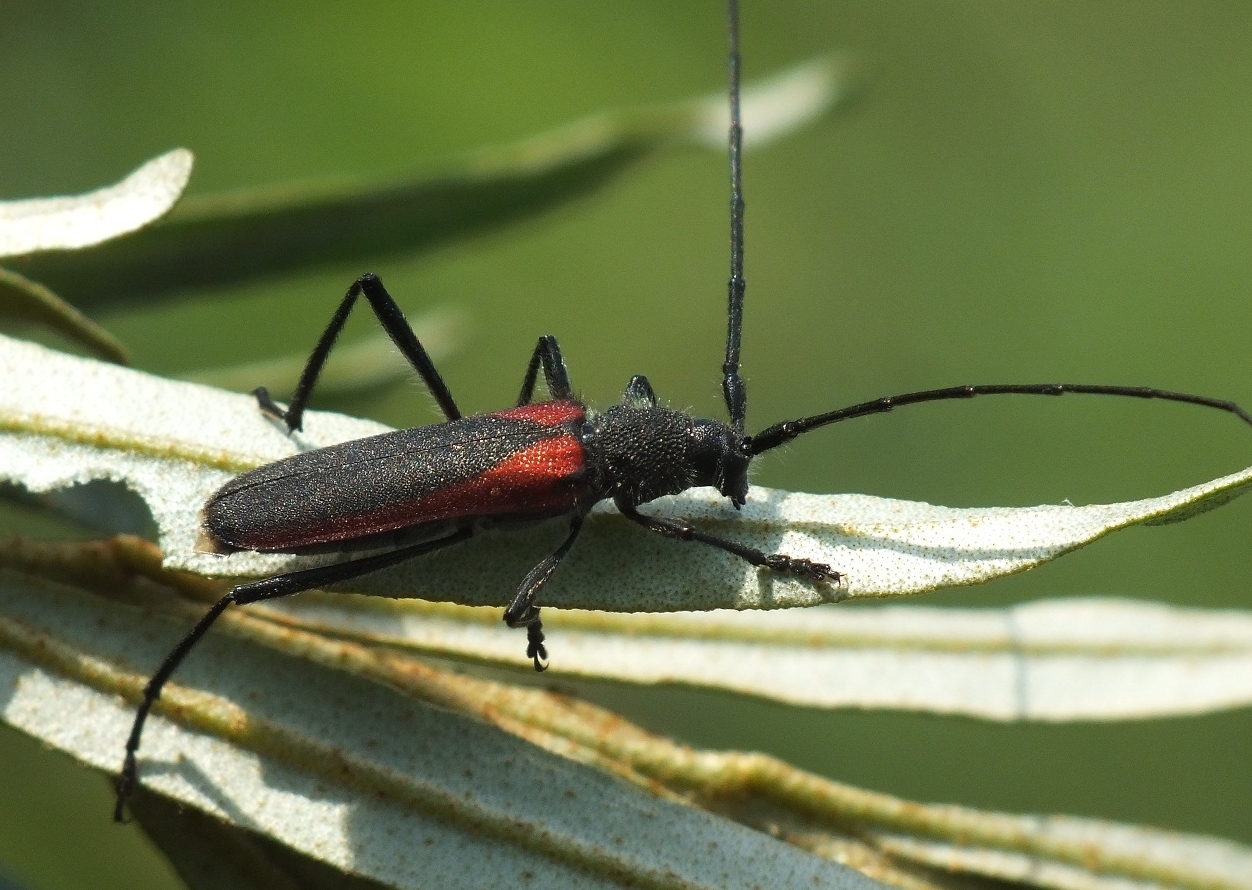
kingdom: Animalia
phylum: Arthropoda
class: Insecta
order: Coleoptera
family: Cerambycidae
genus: Anoplistes
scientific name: Anoplistes halodendri
